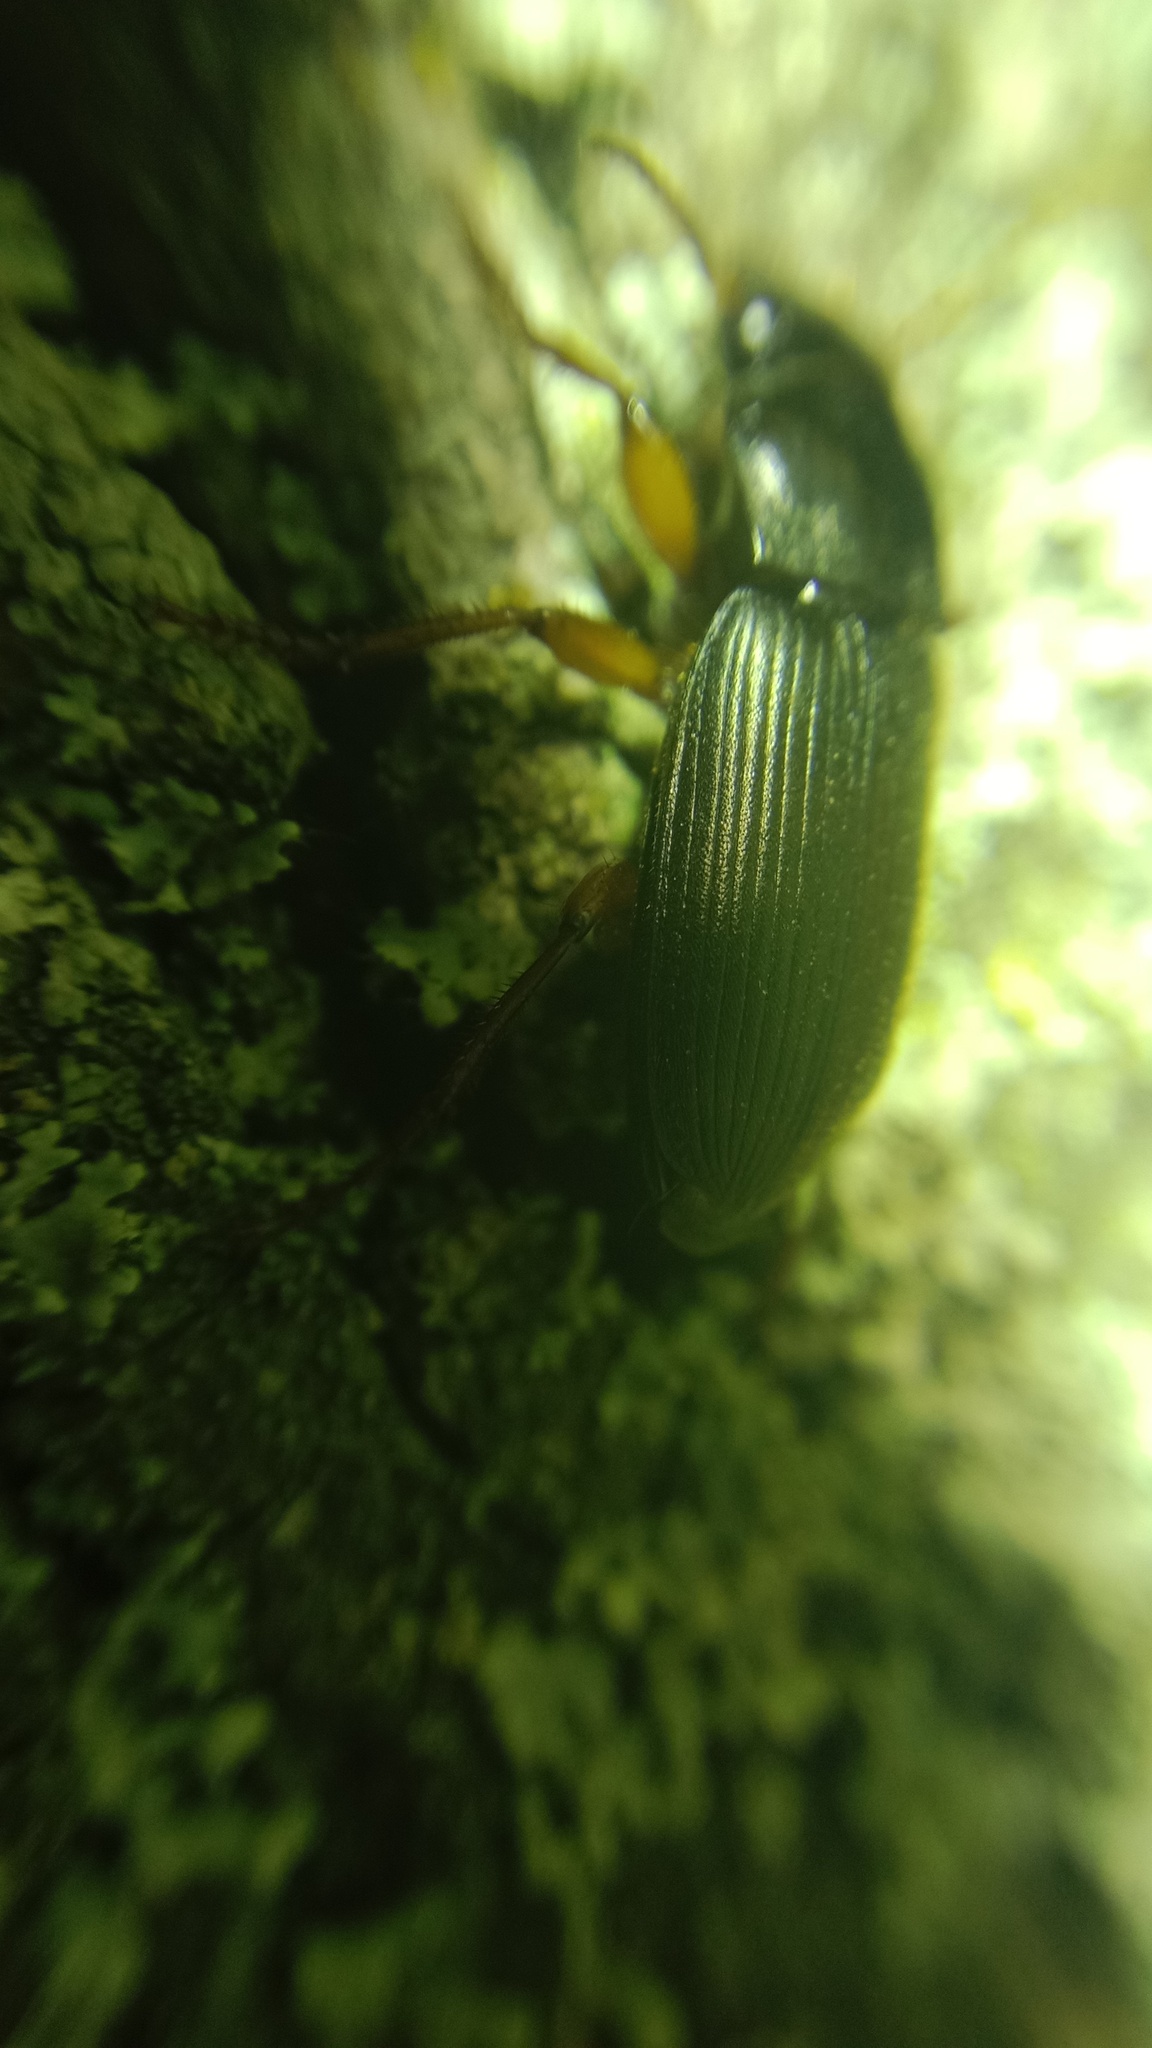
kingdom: Animalia
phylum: Arthropoda
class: Insecta
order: Coleoptera
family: Carabidae
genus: Harpalus
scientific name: Harpalus rufipes
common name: Strawberry harp ground beetle
